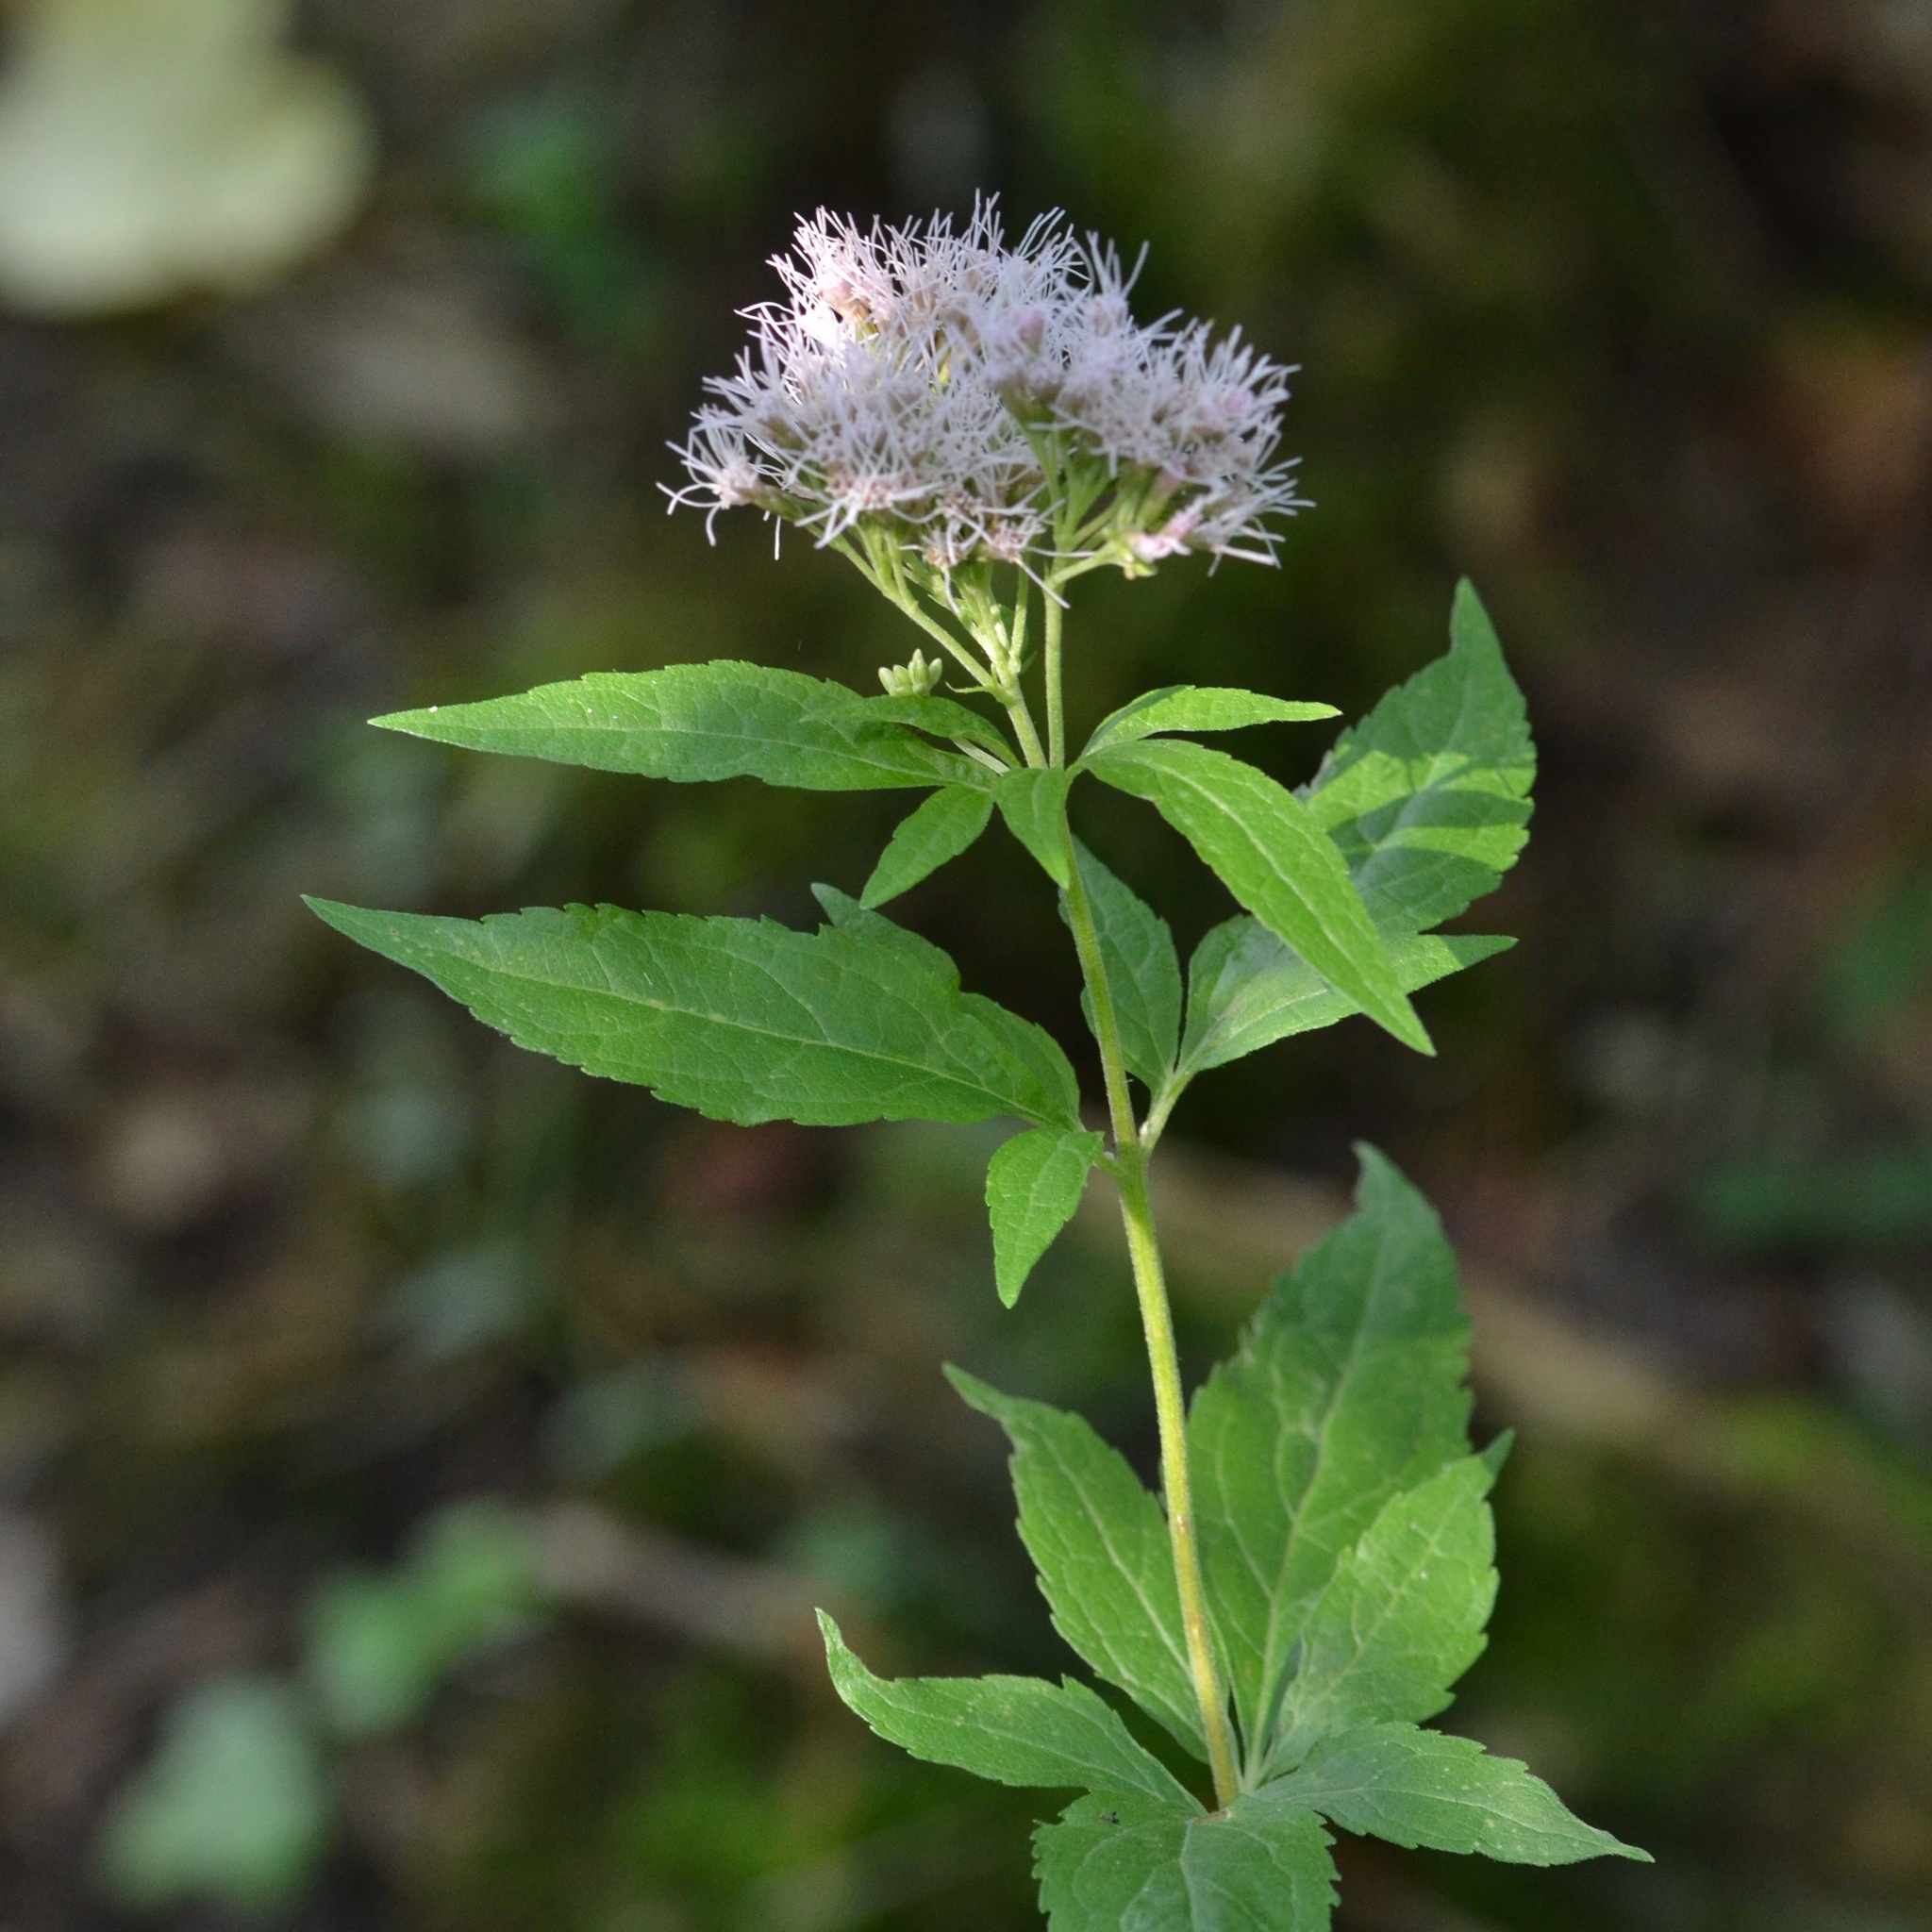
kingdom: Plantae
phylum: Tracheophyta
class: Magnoliopsida
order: Asterales
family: Asteraceae
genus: Eupatorium
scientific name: Eupatorium cannabinum
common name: Hemp-agrimony
